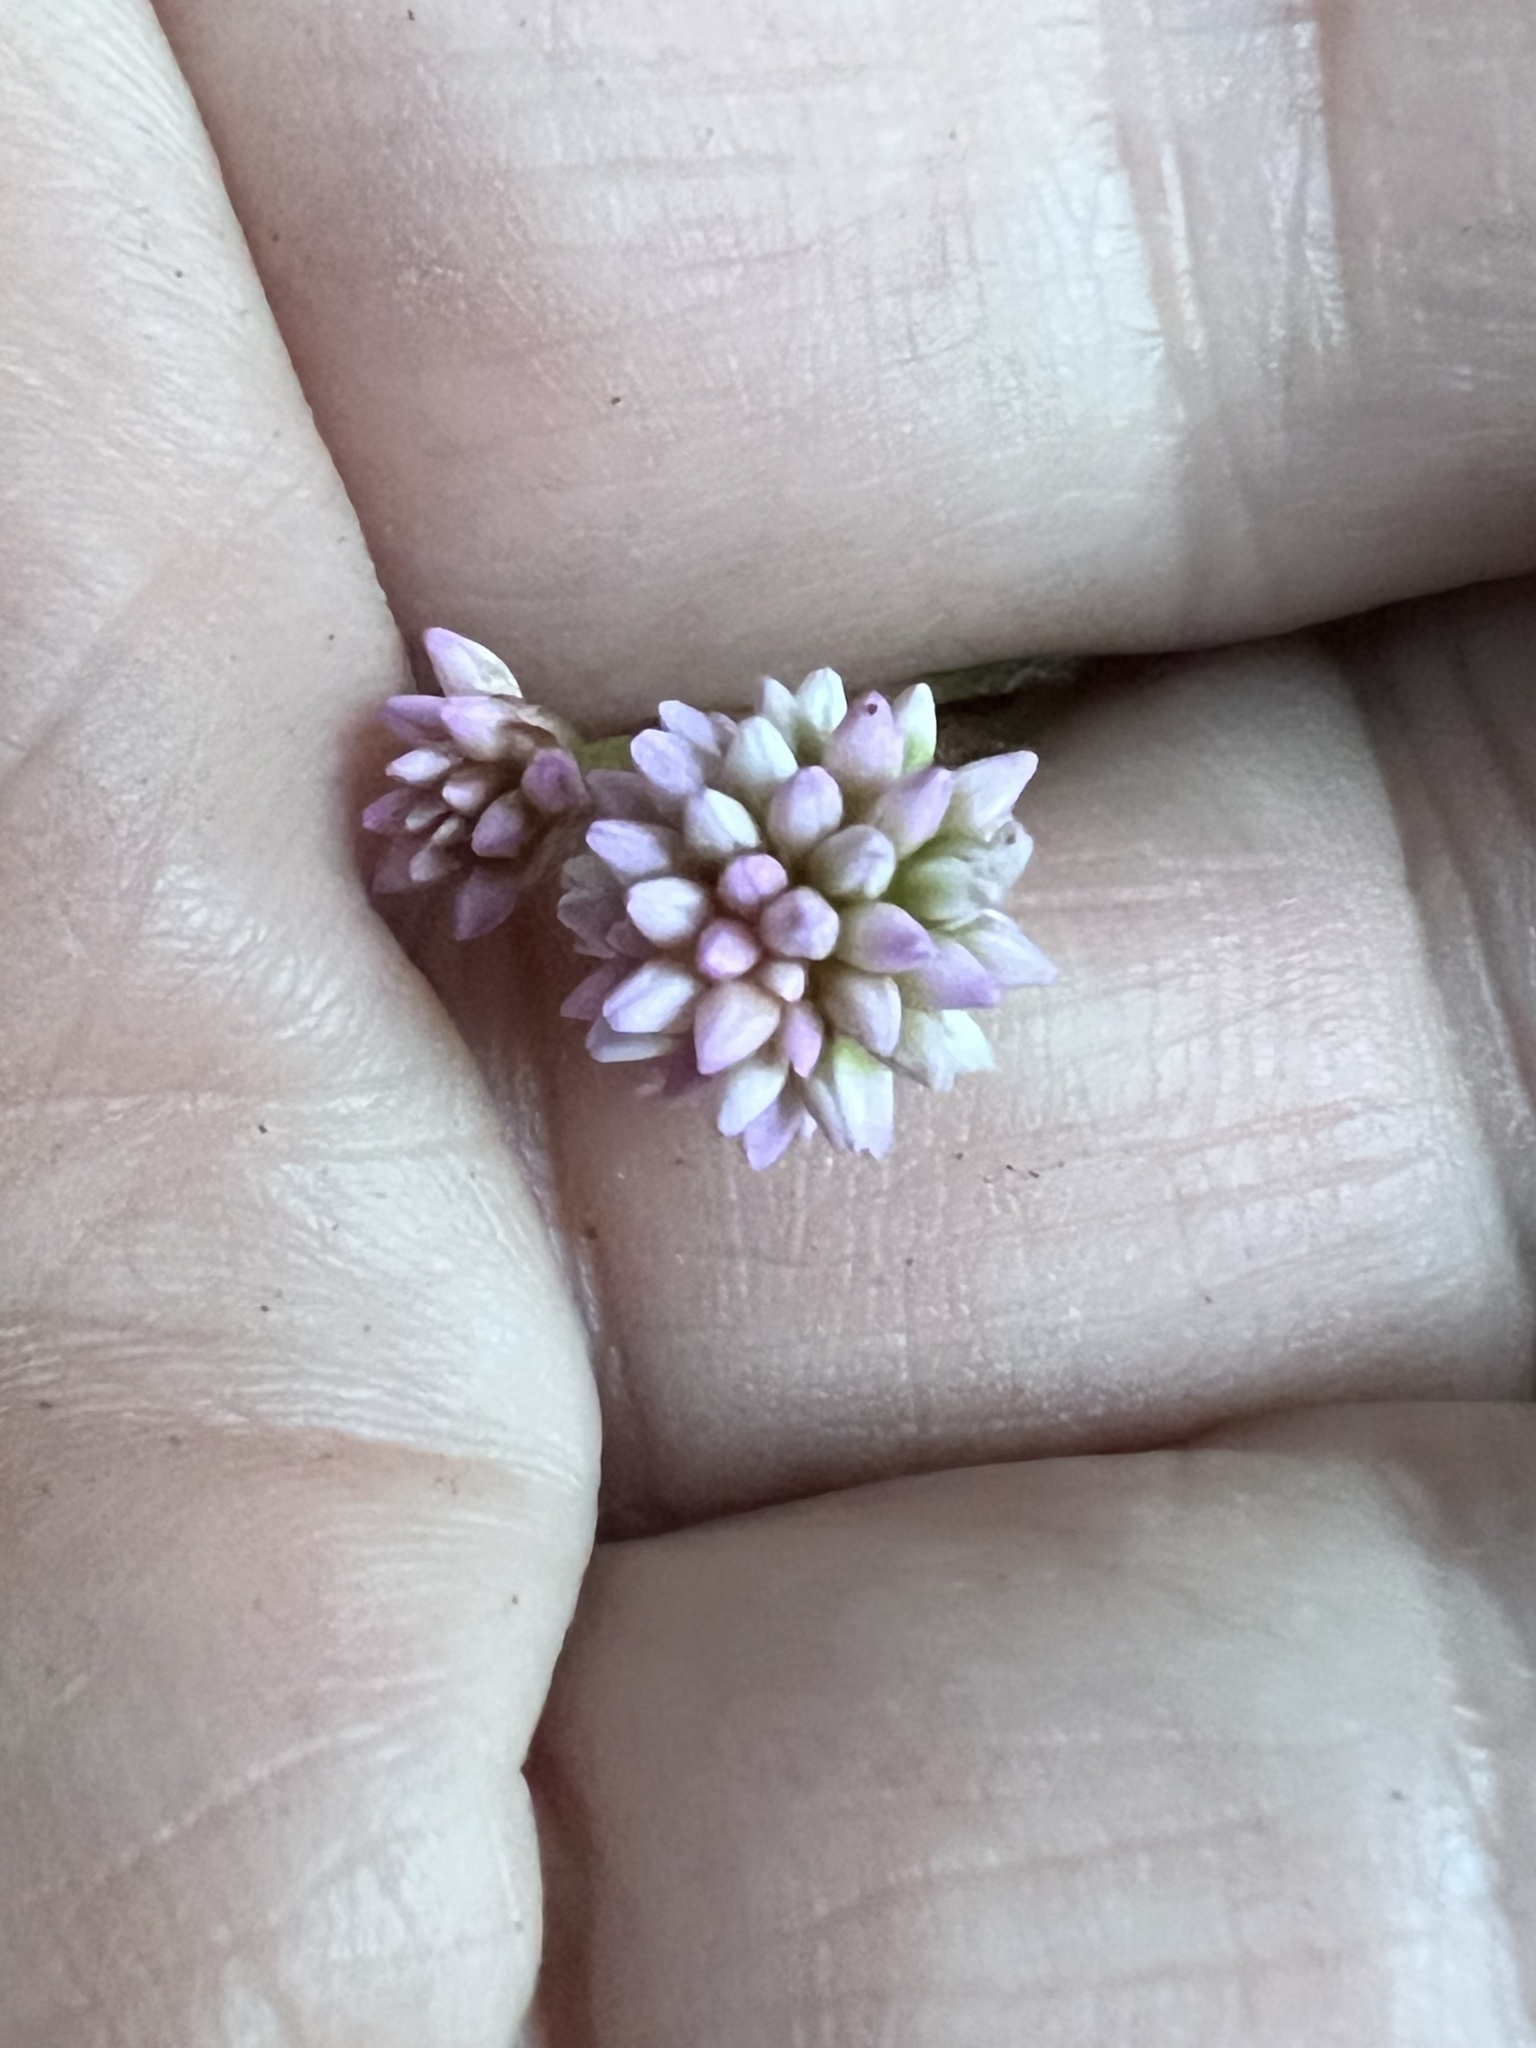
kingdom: Plantae
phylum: Tracheophyta
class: Magnoliopsida
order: Caryophyllales
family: Polygonaceae
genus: Persicaria
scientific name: Persicaria capitata
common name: Pinkhead smartweed
